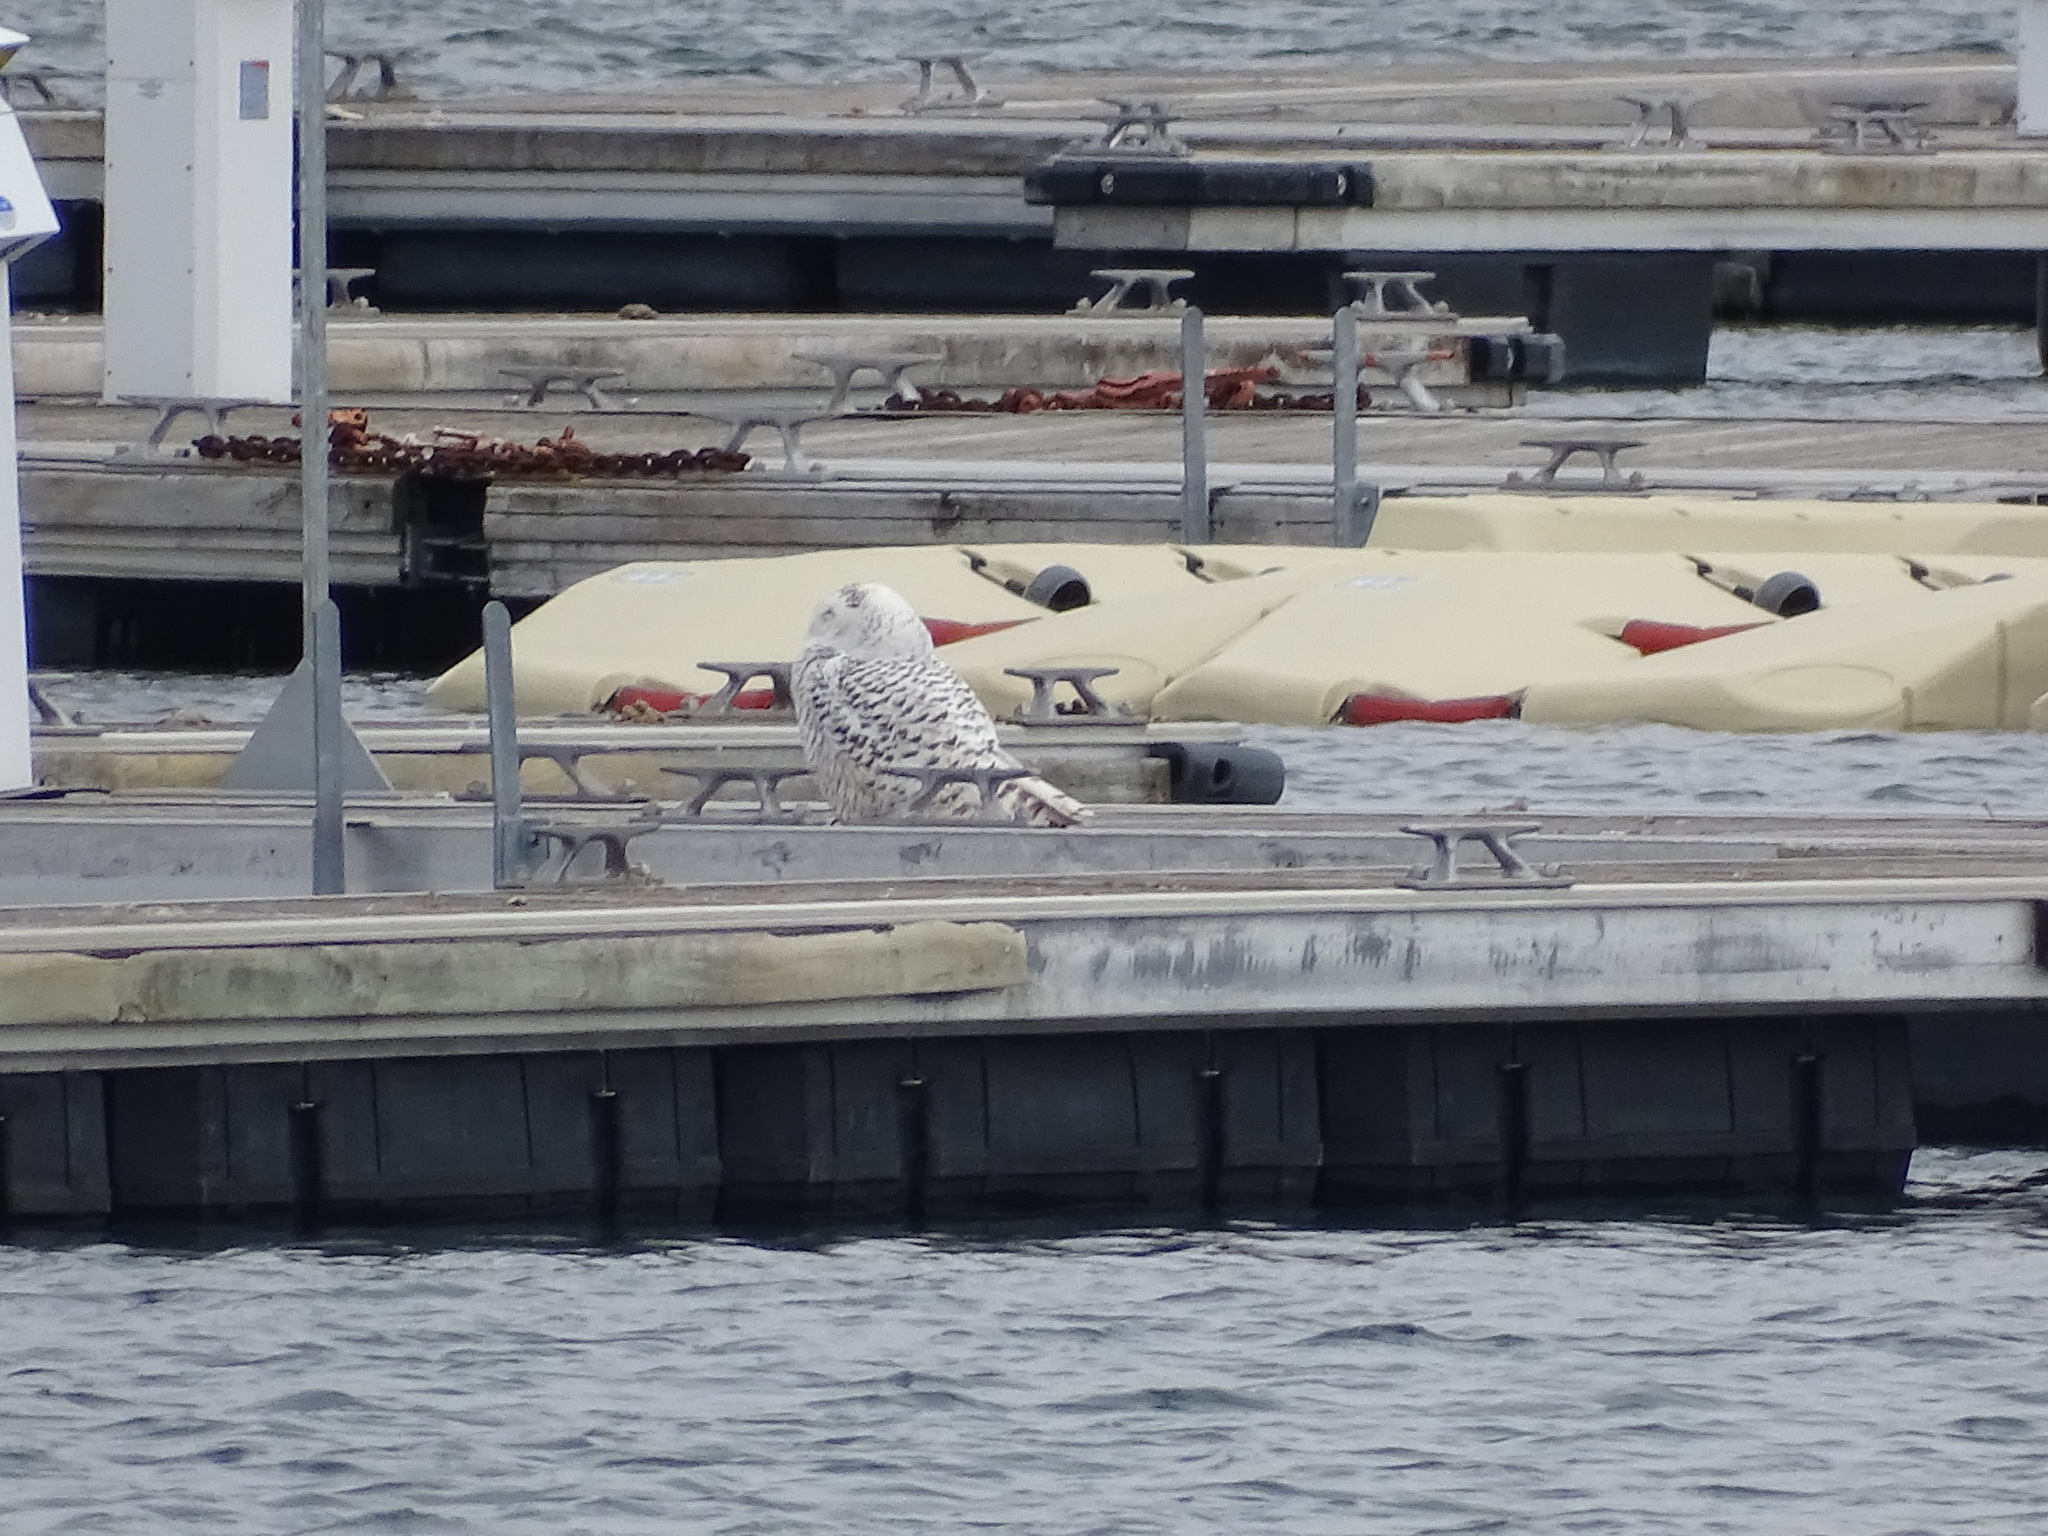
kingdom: Animalia
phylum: Chordata
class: Aves
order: Strigiformes
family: Strigidae
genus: Bubo
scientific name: Bubo scandiacus
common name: Snowy owl
